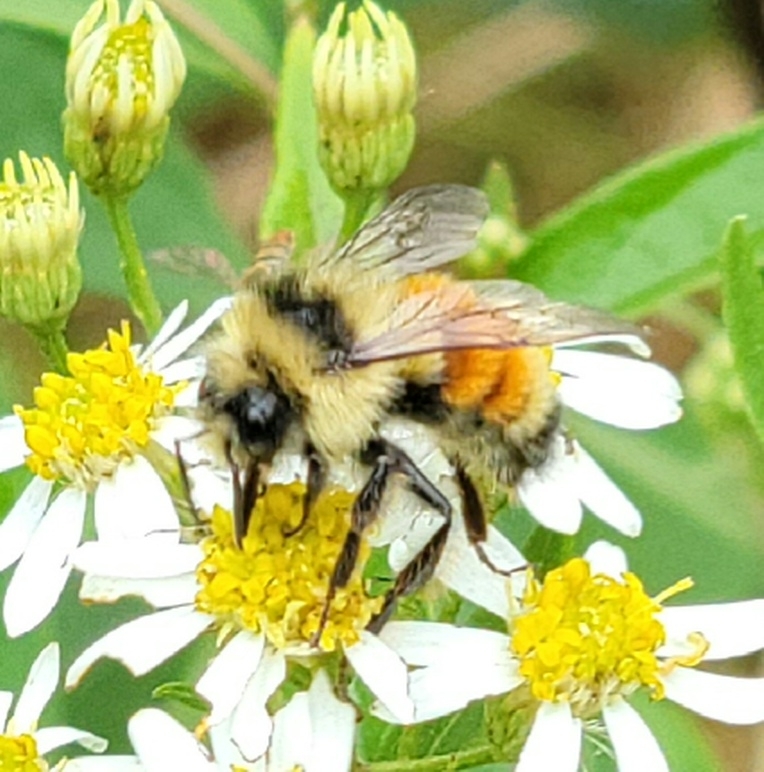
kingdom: Animalia
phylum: Arthropoda
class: Insecta
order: Hymenoptera
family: Apidae
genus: Bombus
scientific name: Bombus ternarius
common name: Tri-colored bumble bee
